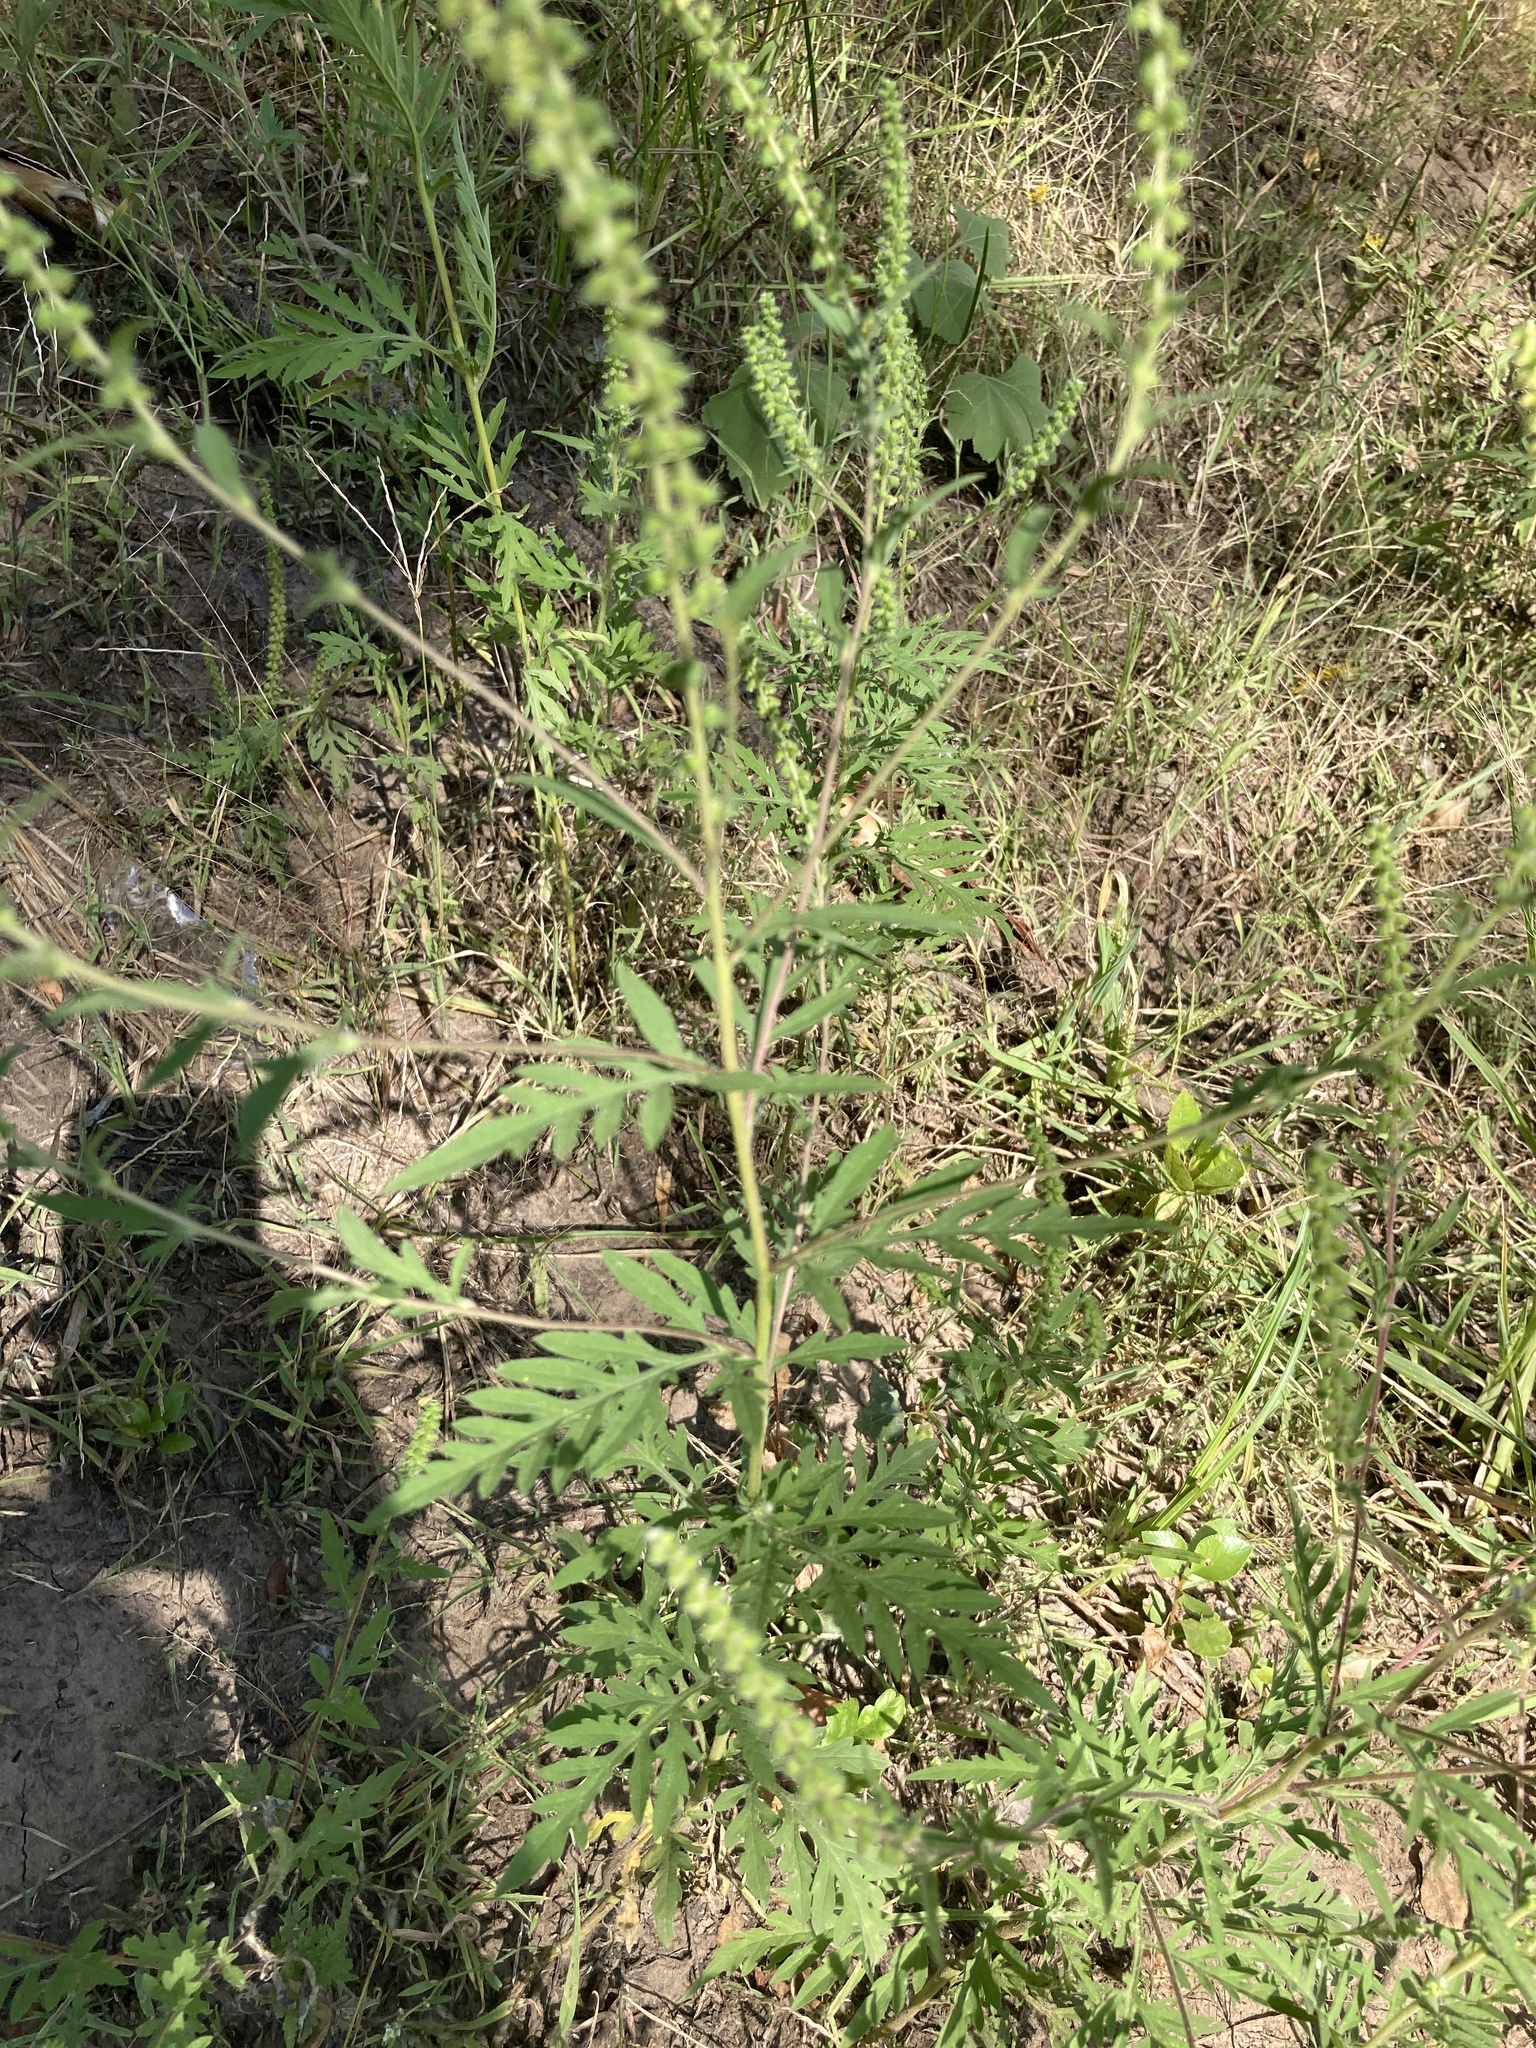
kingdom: Plantae
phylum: Tracheophyta
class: Magnoliopsida
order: Asterales
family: Asteraceae
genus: Ambrosia
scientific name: Ambrosia artemisiifolia
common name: Annual ragweed
